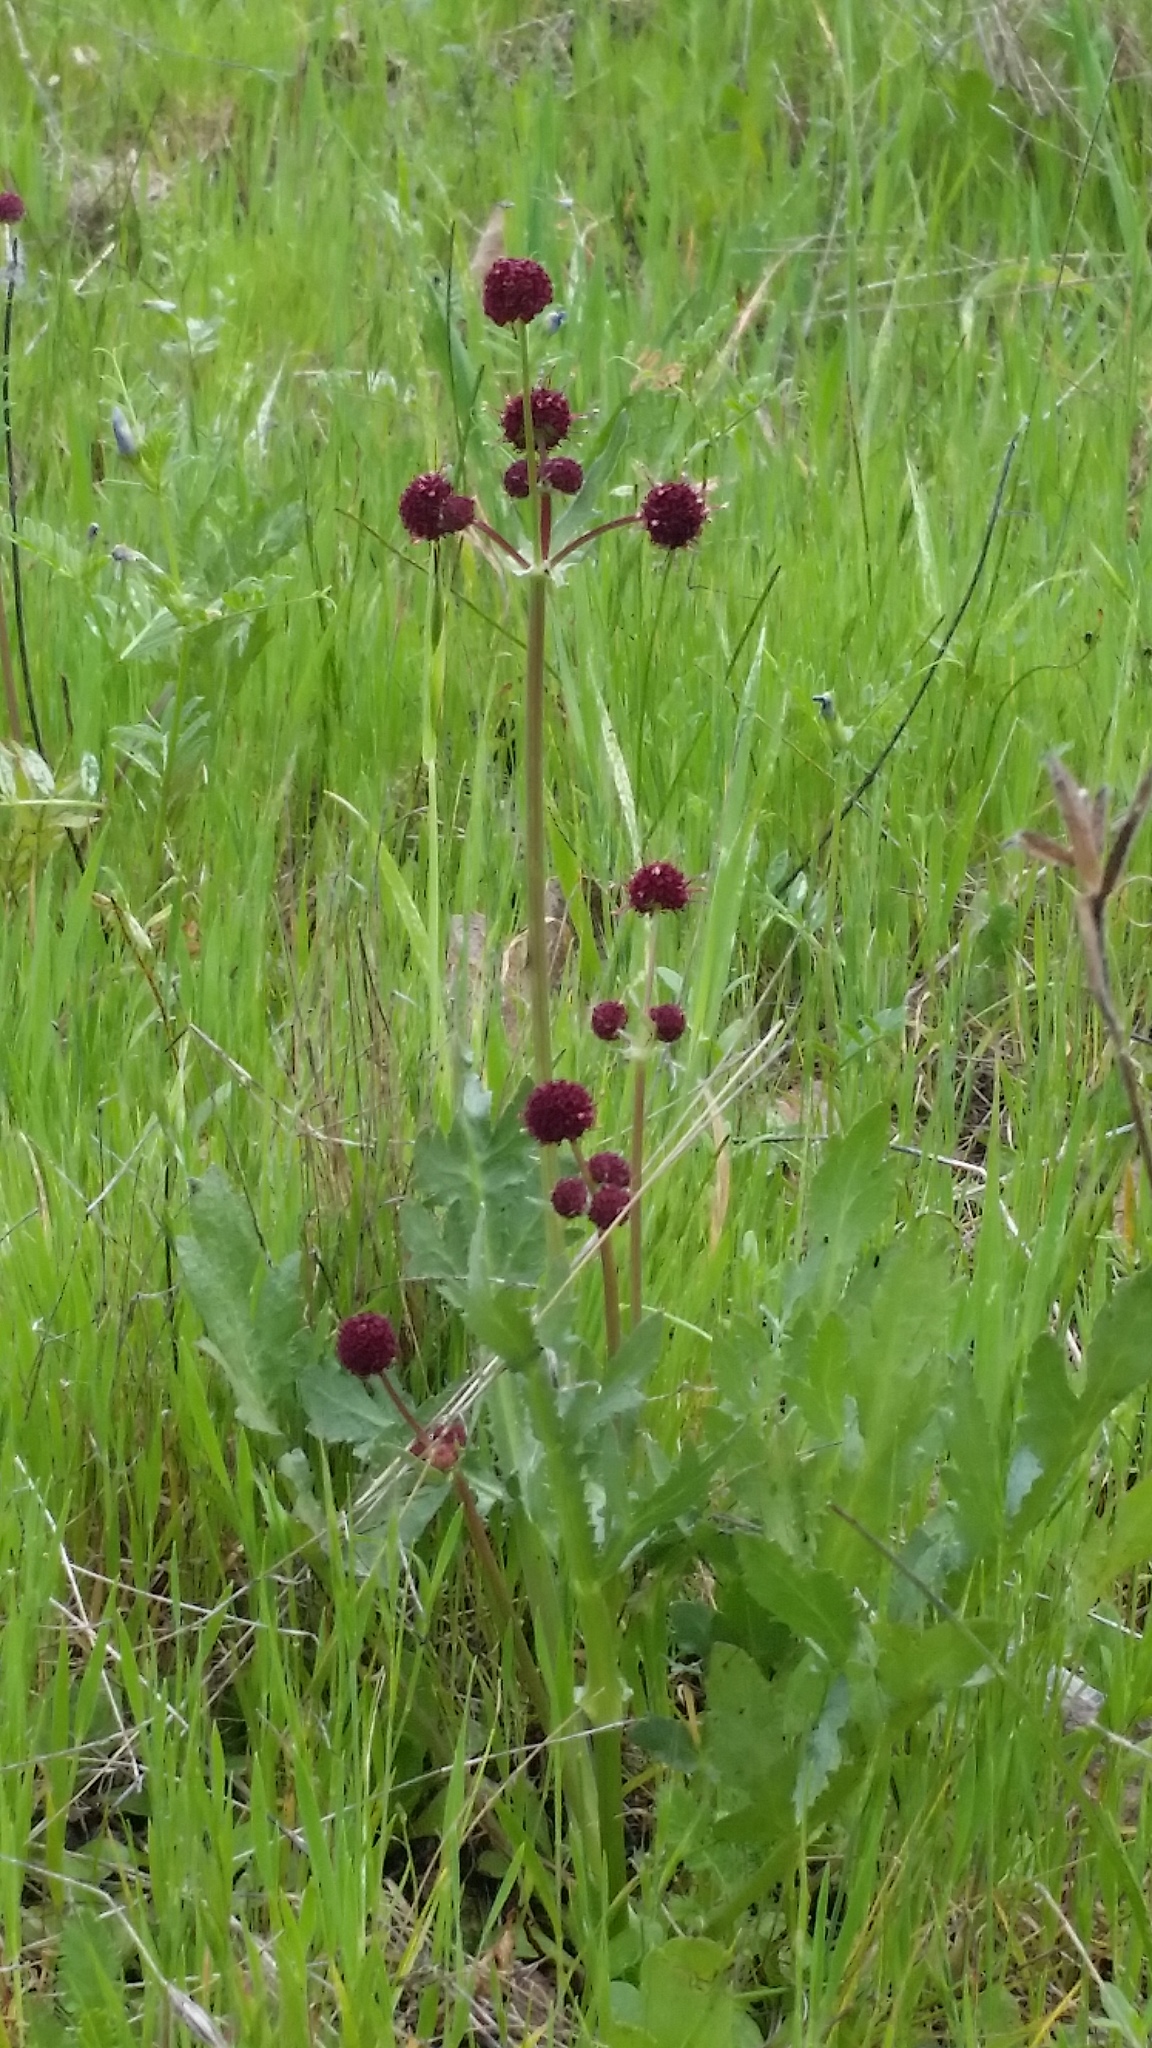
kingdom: Plantae
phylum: Tracheophyta
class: Magnoliopsida
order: Apiales
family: Apiaceae
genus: Sanicula
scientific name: Sanicula bipinnatifida
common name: Shoe-buttons
